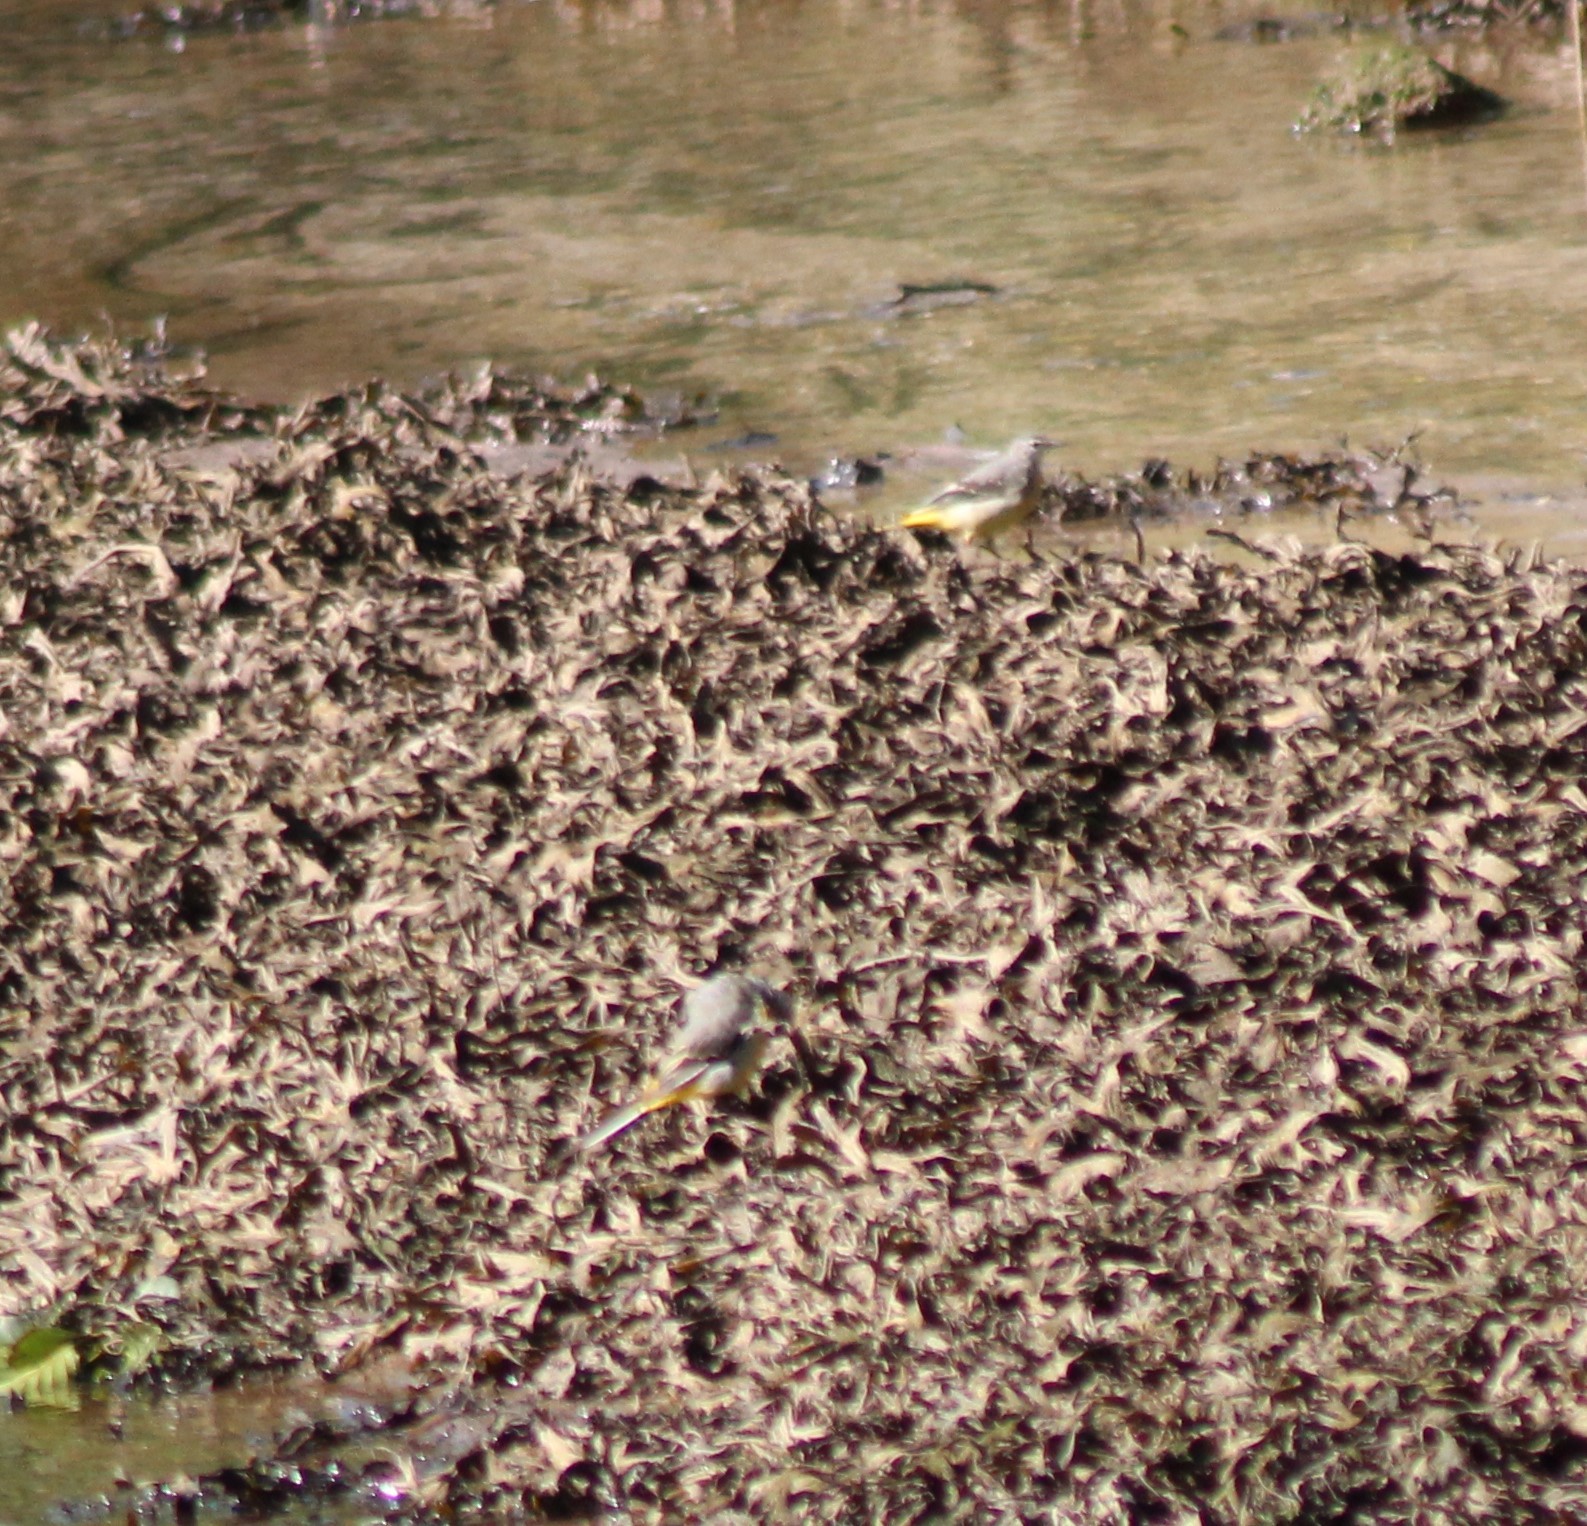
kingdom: Animalia
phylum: Chordata
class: Aves
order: Passeriformes
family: Motacillidae
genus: Motacilla
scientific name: Motacilla cinerea
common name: Grey wagtail
